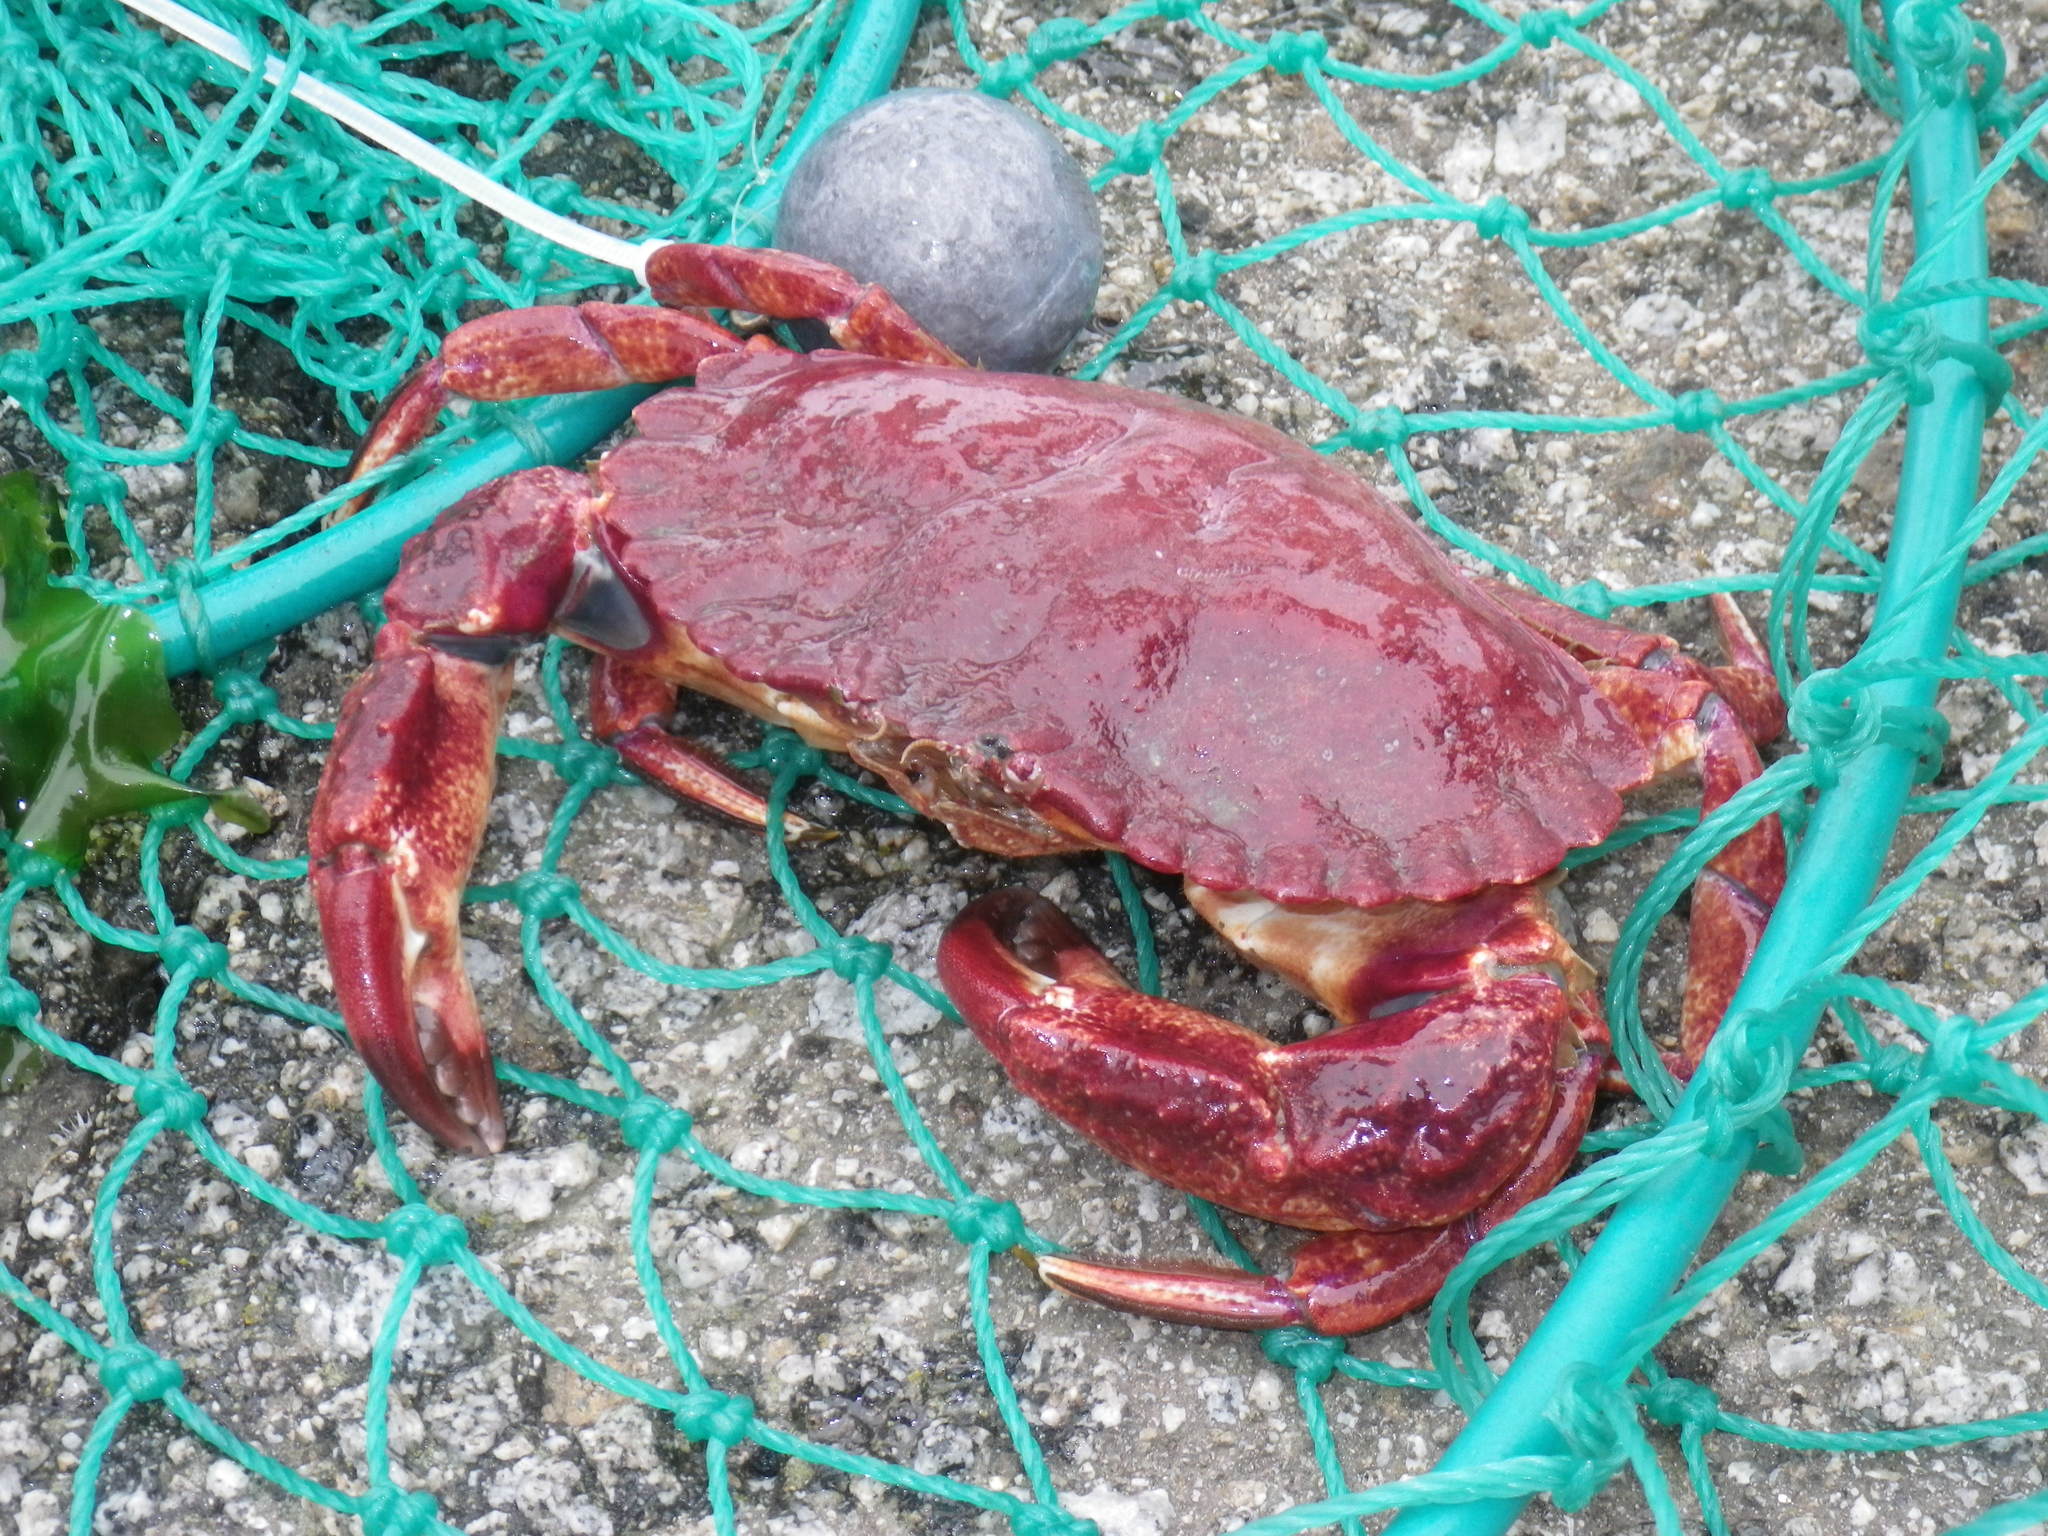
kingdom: Animalia
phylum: Arthropoda
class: Malacostraca
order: Decapoda
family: Cancridae
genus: Cancer
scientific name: Cancer productus
